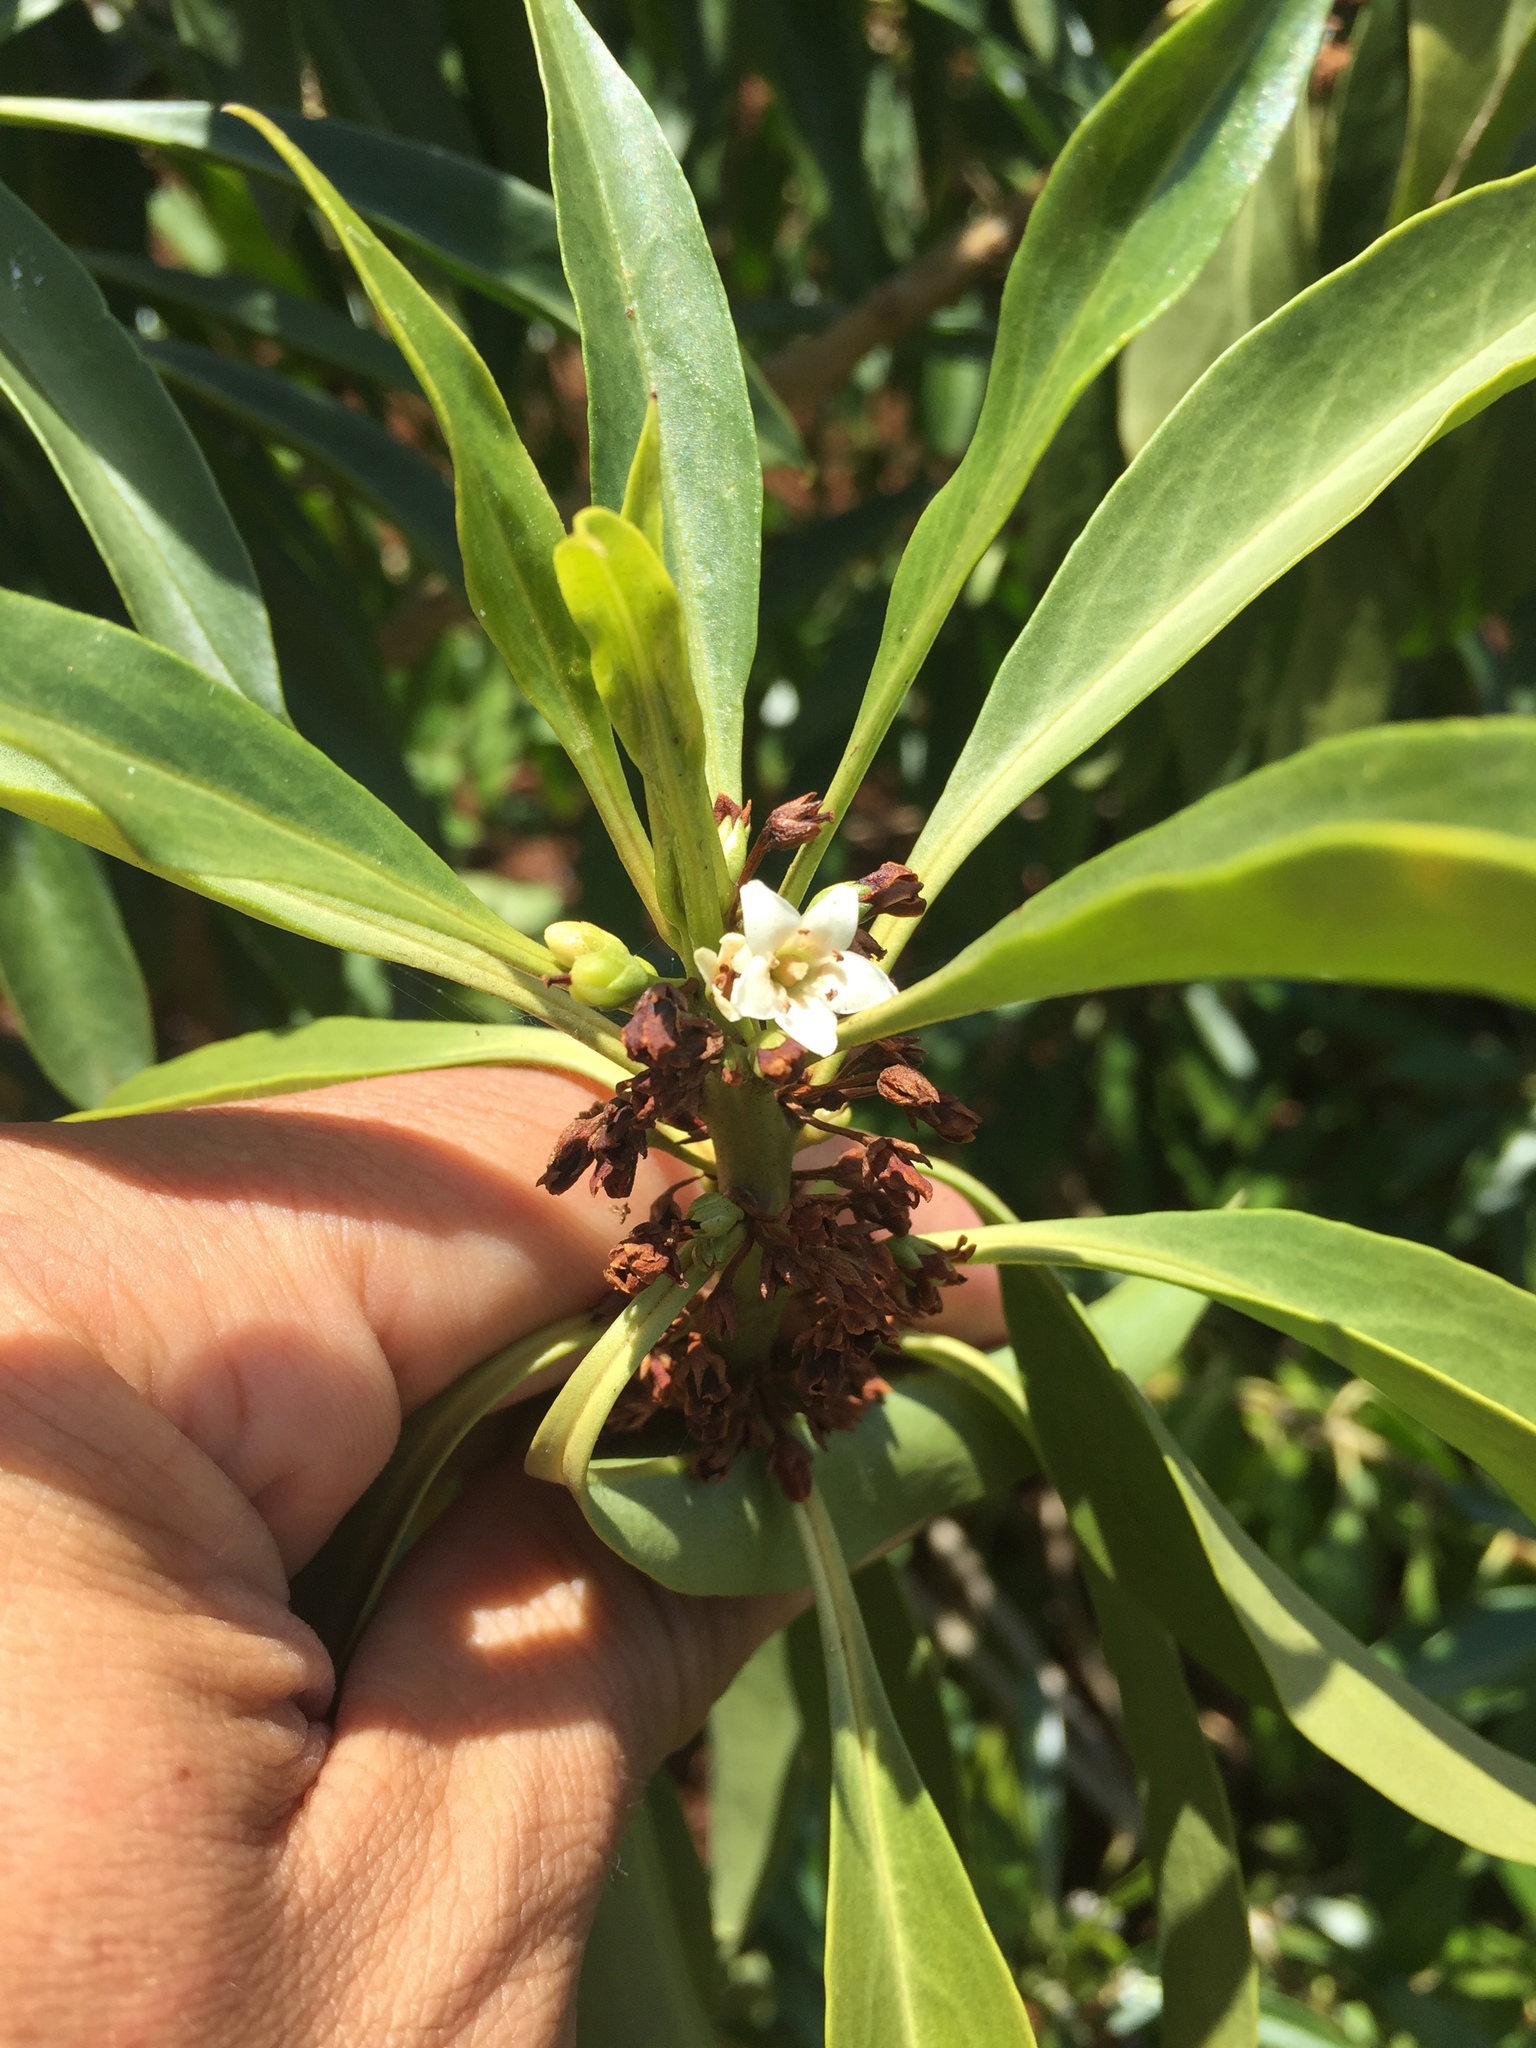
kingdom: Plantae
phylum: Tracheophyta
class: Magnoliopsida
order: Lamiales
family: Scrophulariaceae
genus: Myoporum
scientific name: Myoporum sandwicense
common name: Bastard-sandalwood
